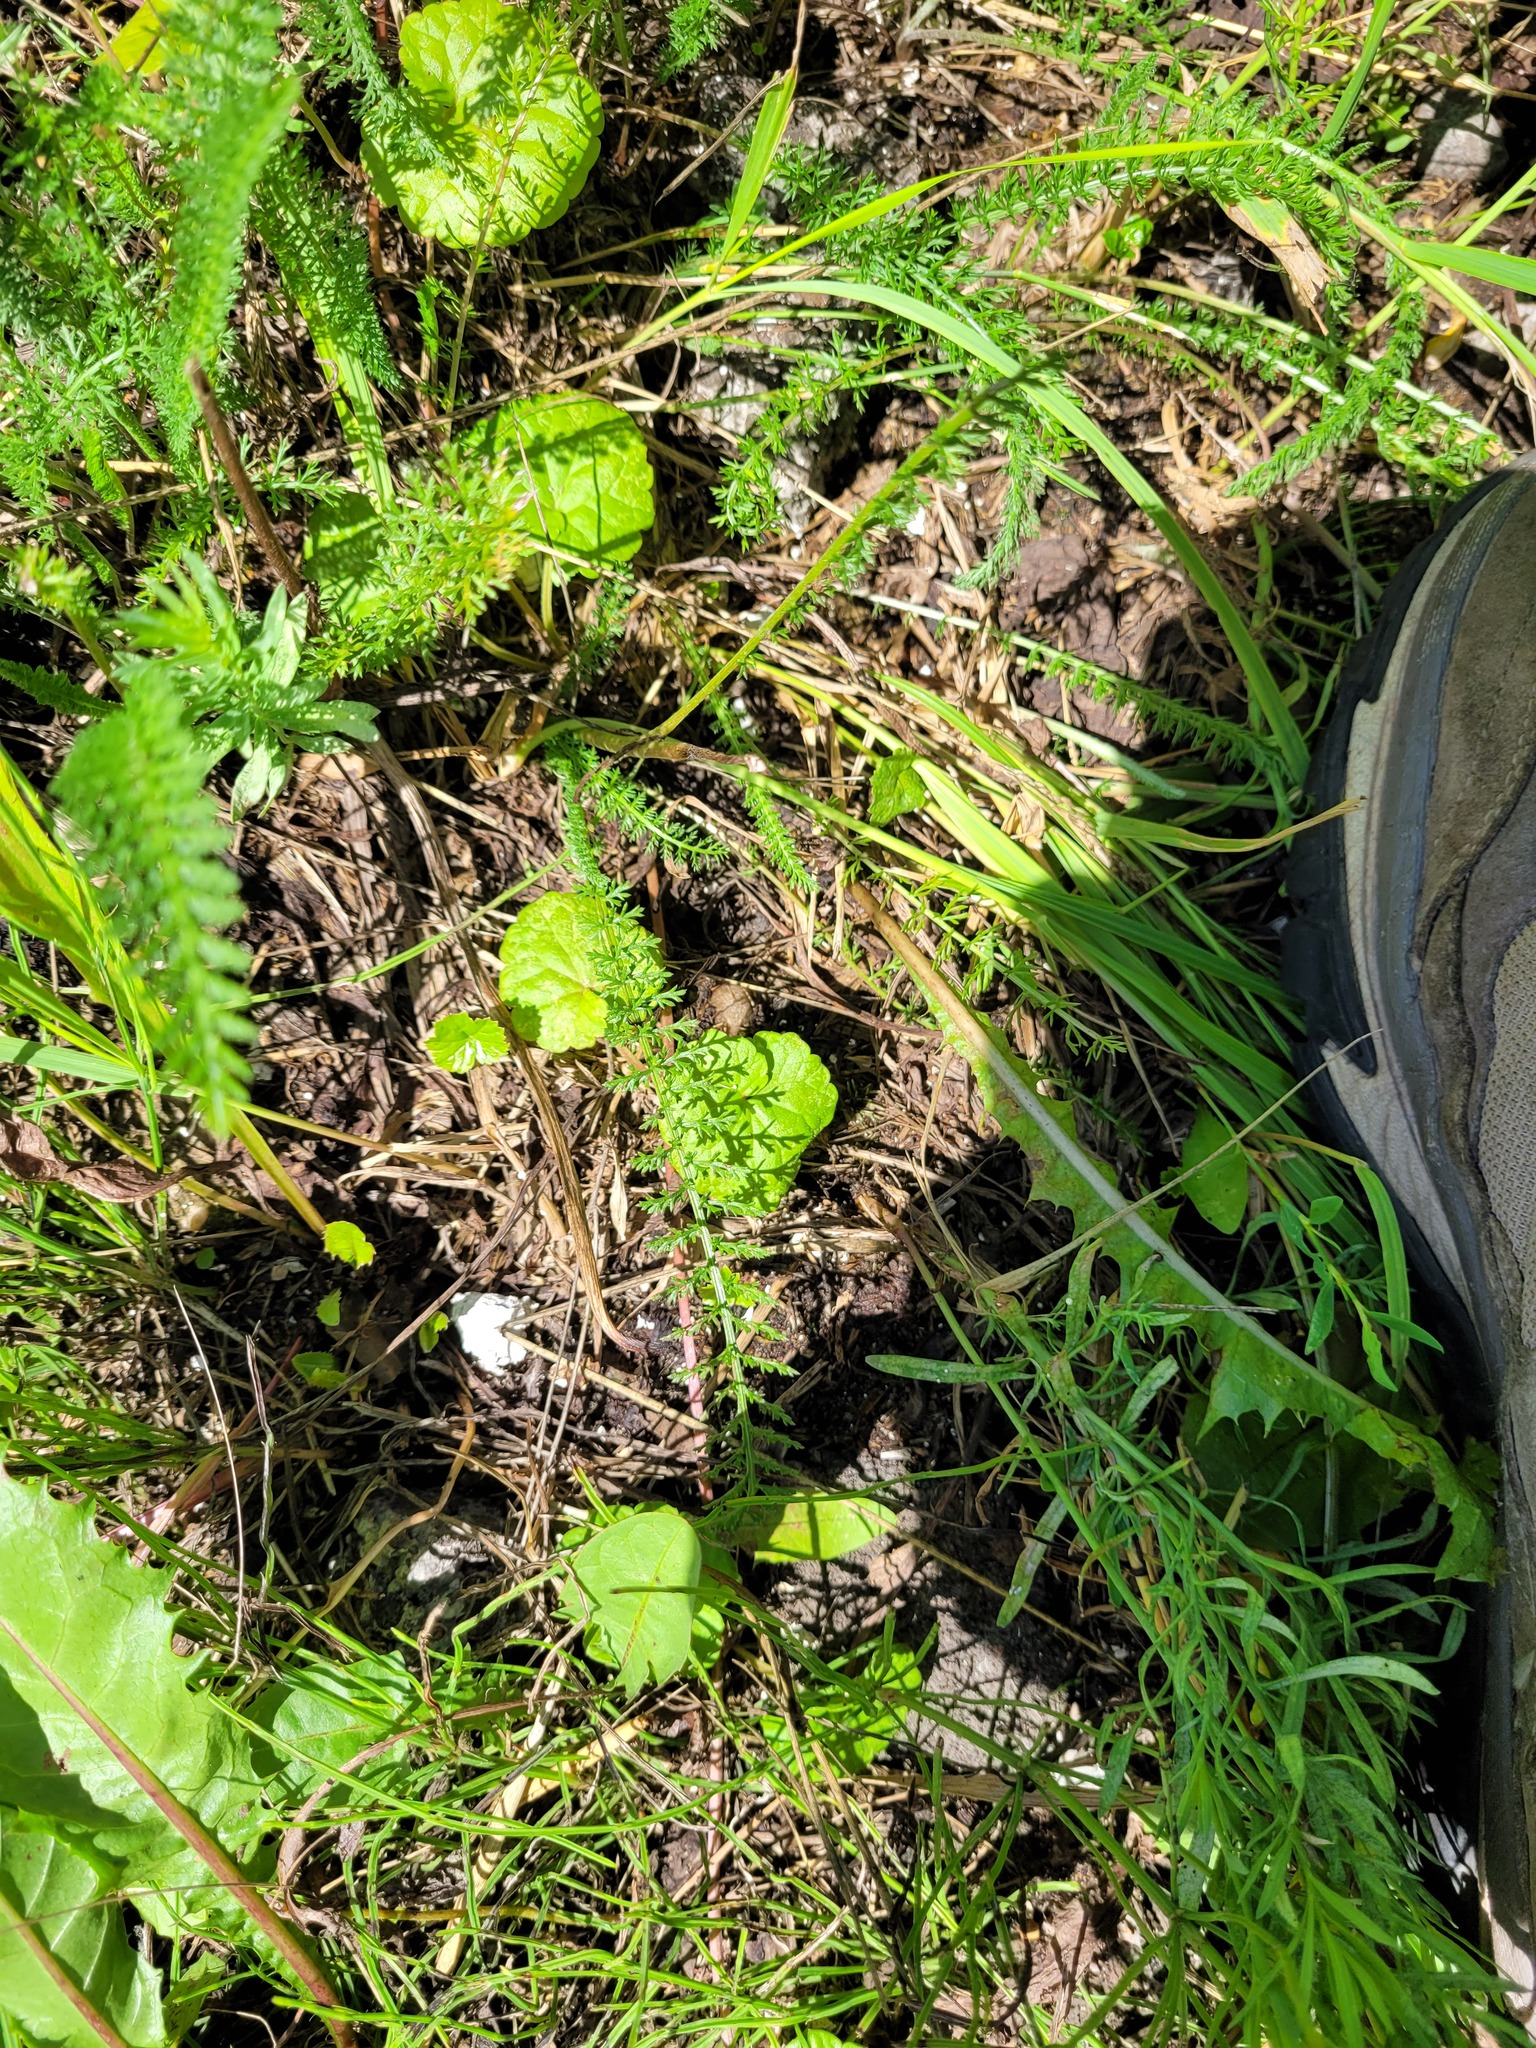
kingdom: Plantae
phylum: Tracheophyta
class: Magnoliopsida
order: Lamiales
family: Lamiaceae
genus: Glechoma
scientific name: Glechoma hederacea
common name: Ground ivy
